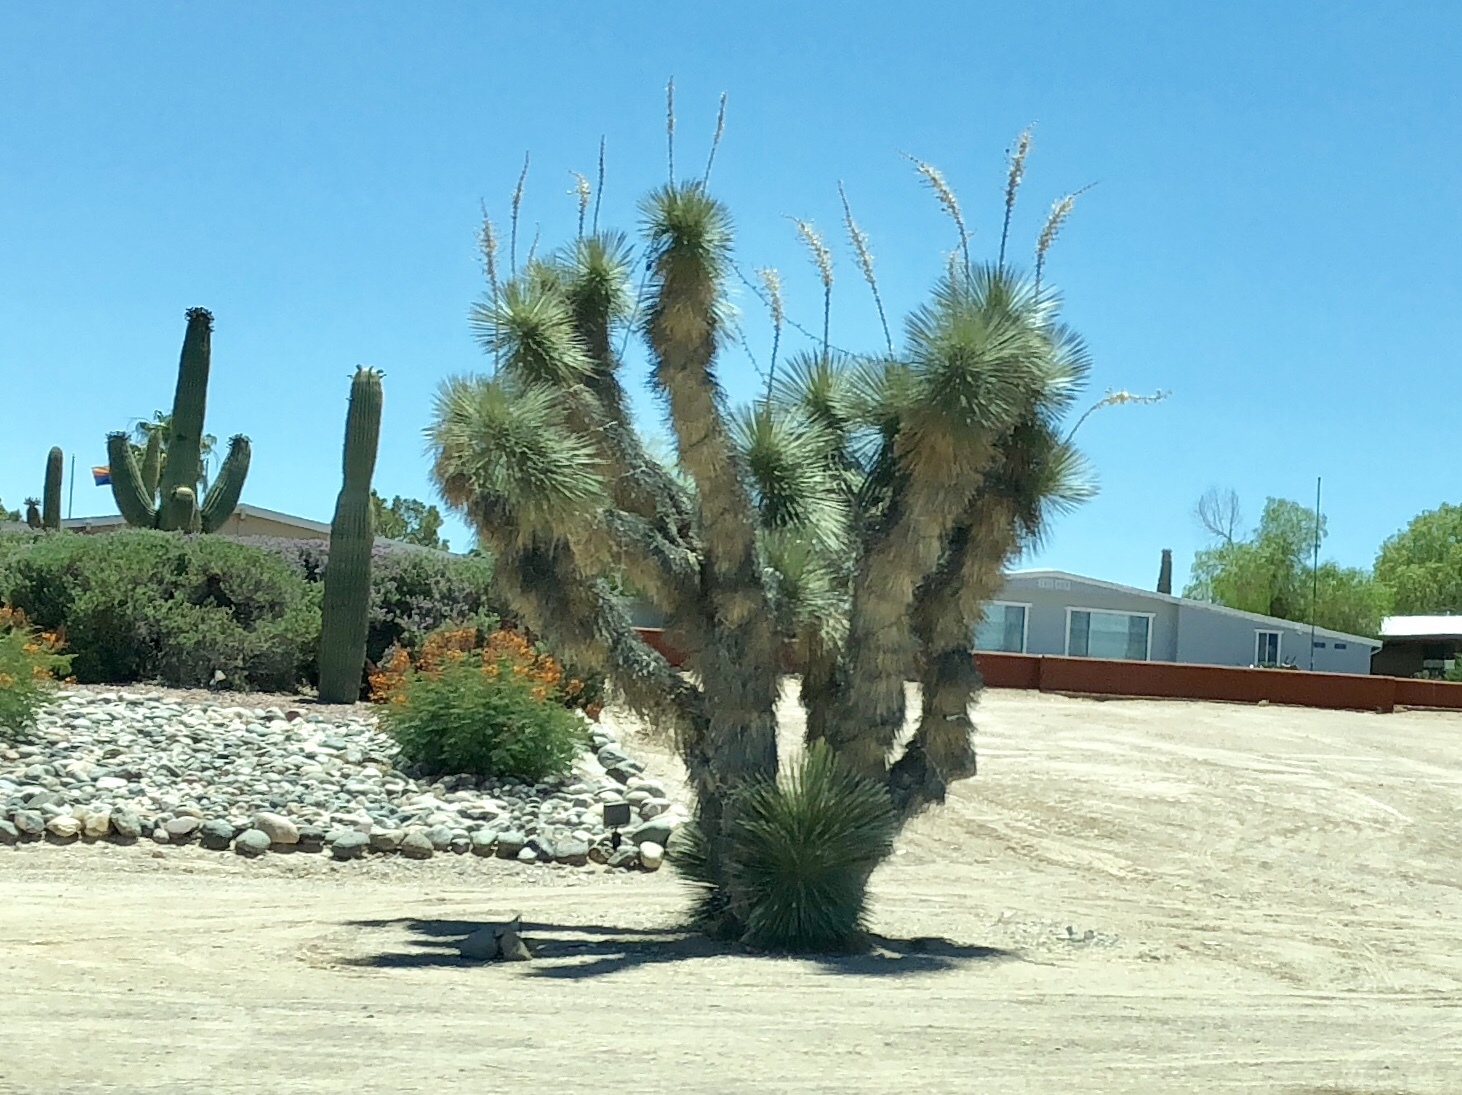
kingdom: Plantae
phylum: Tracheophyta
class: Liliopsida
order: Asparagales
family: Asparagaceae
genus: Yucca
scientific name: Yucca elata
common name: Palmella
